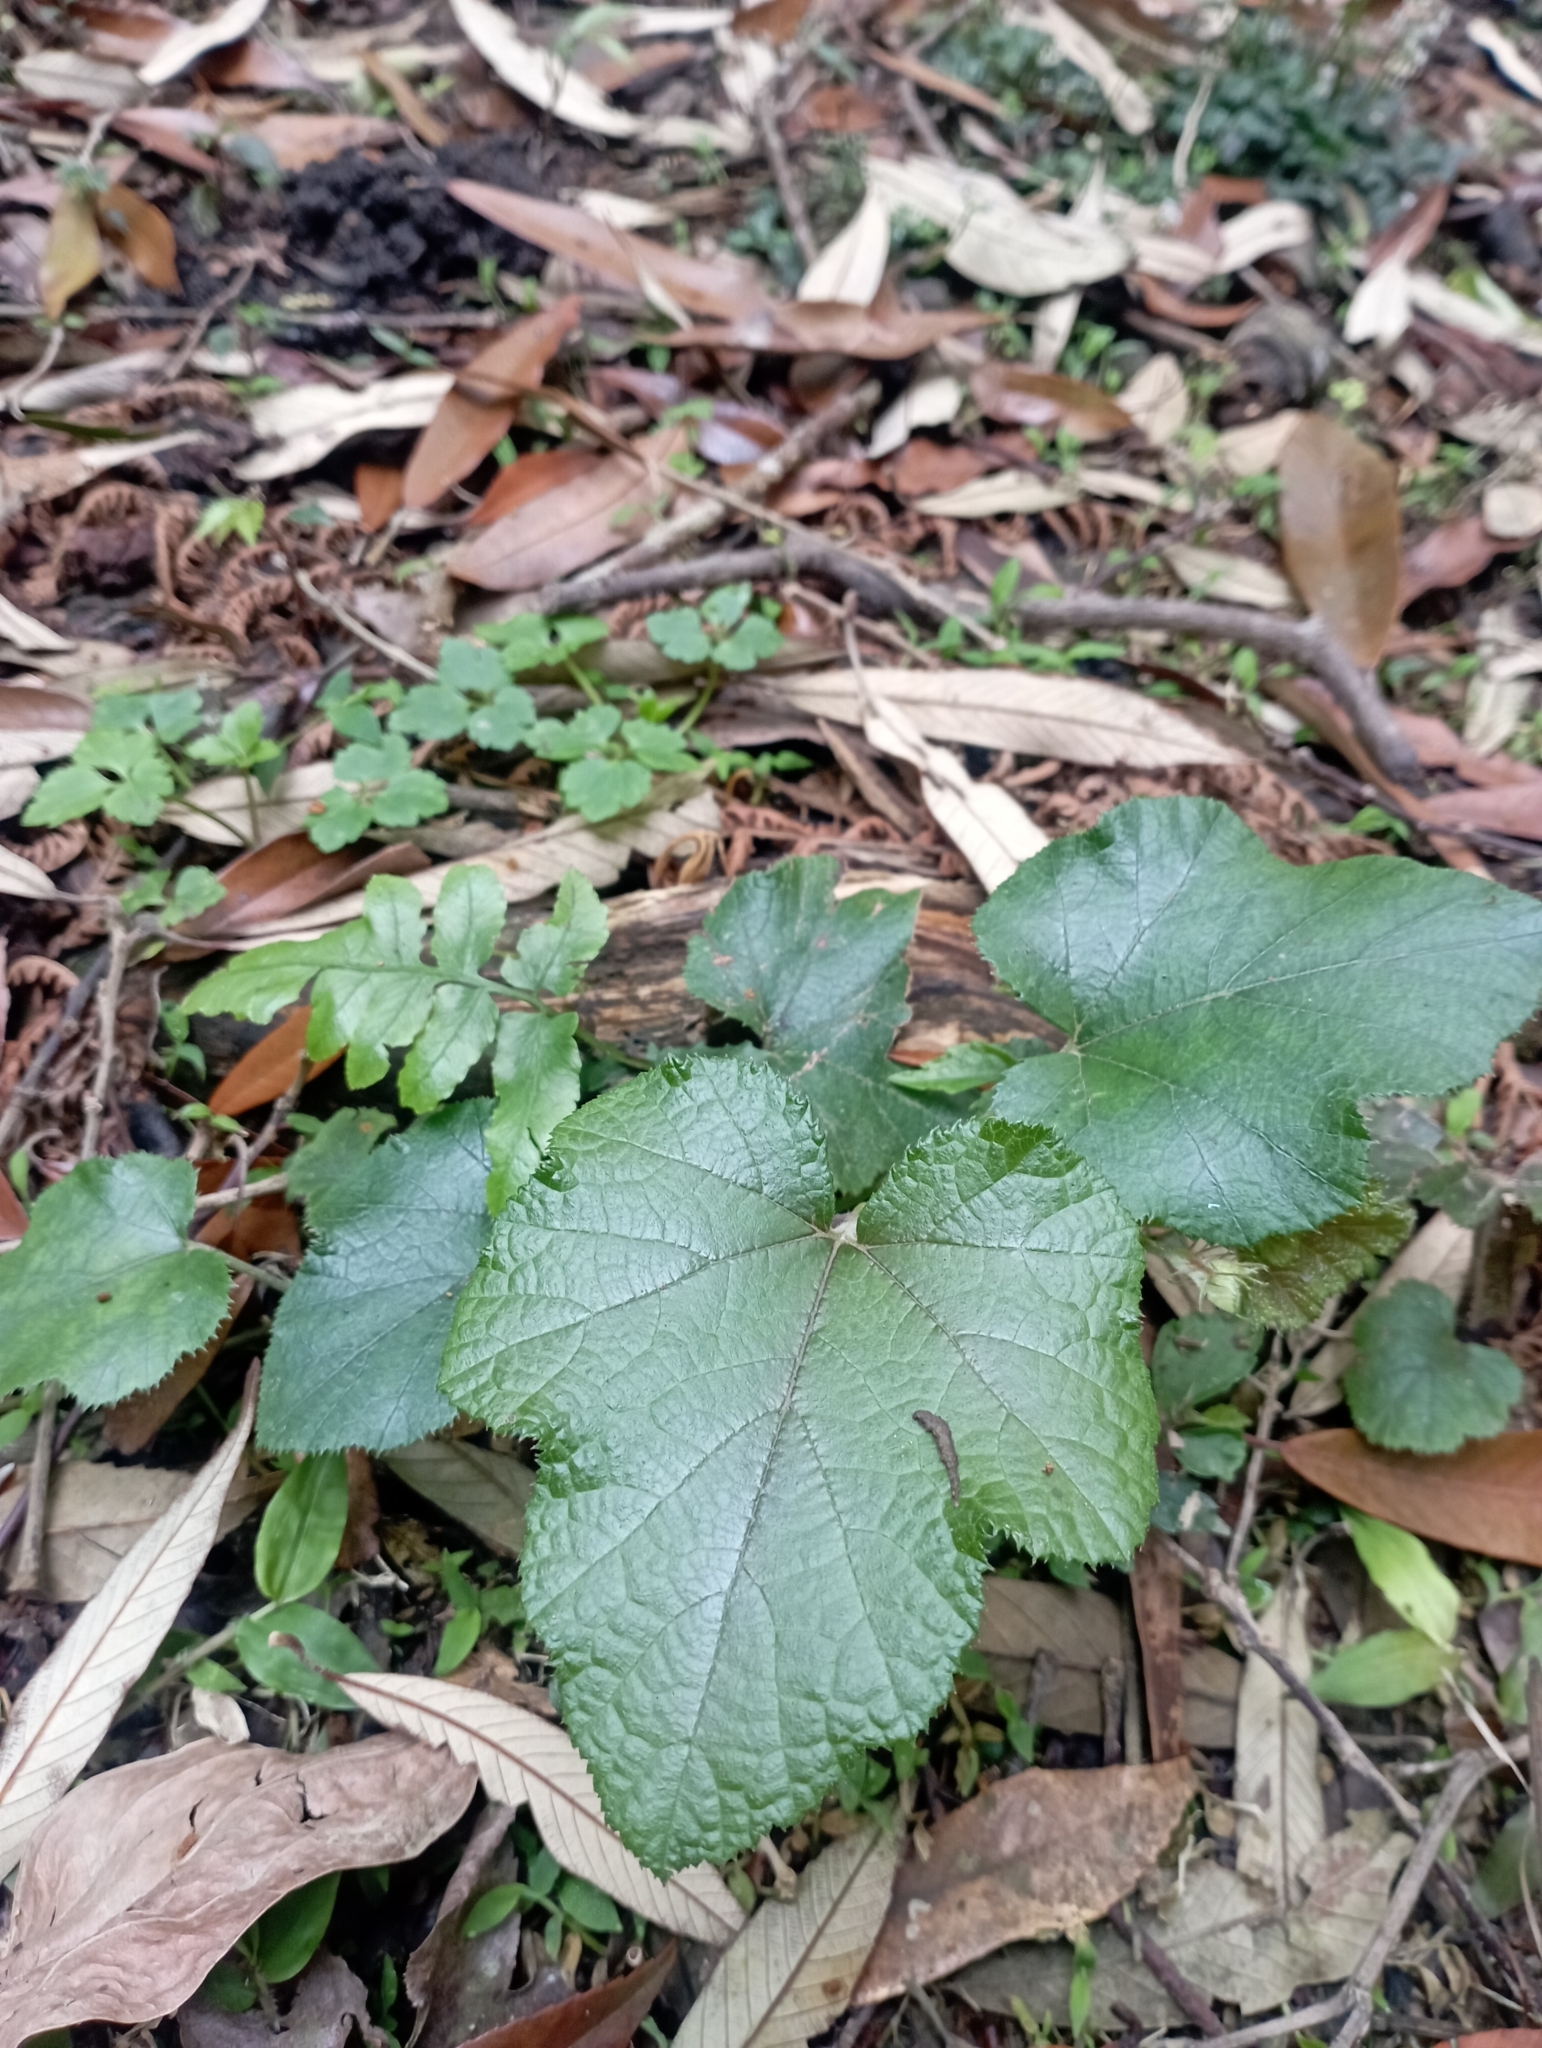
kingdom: Plantae
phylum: Tracheophyta
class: Magnoliopsida
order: Rosales
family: Rosaceae
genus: Rubus
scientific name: Rubus buergeri
